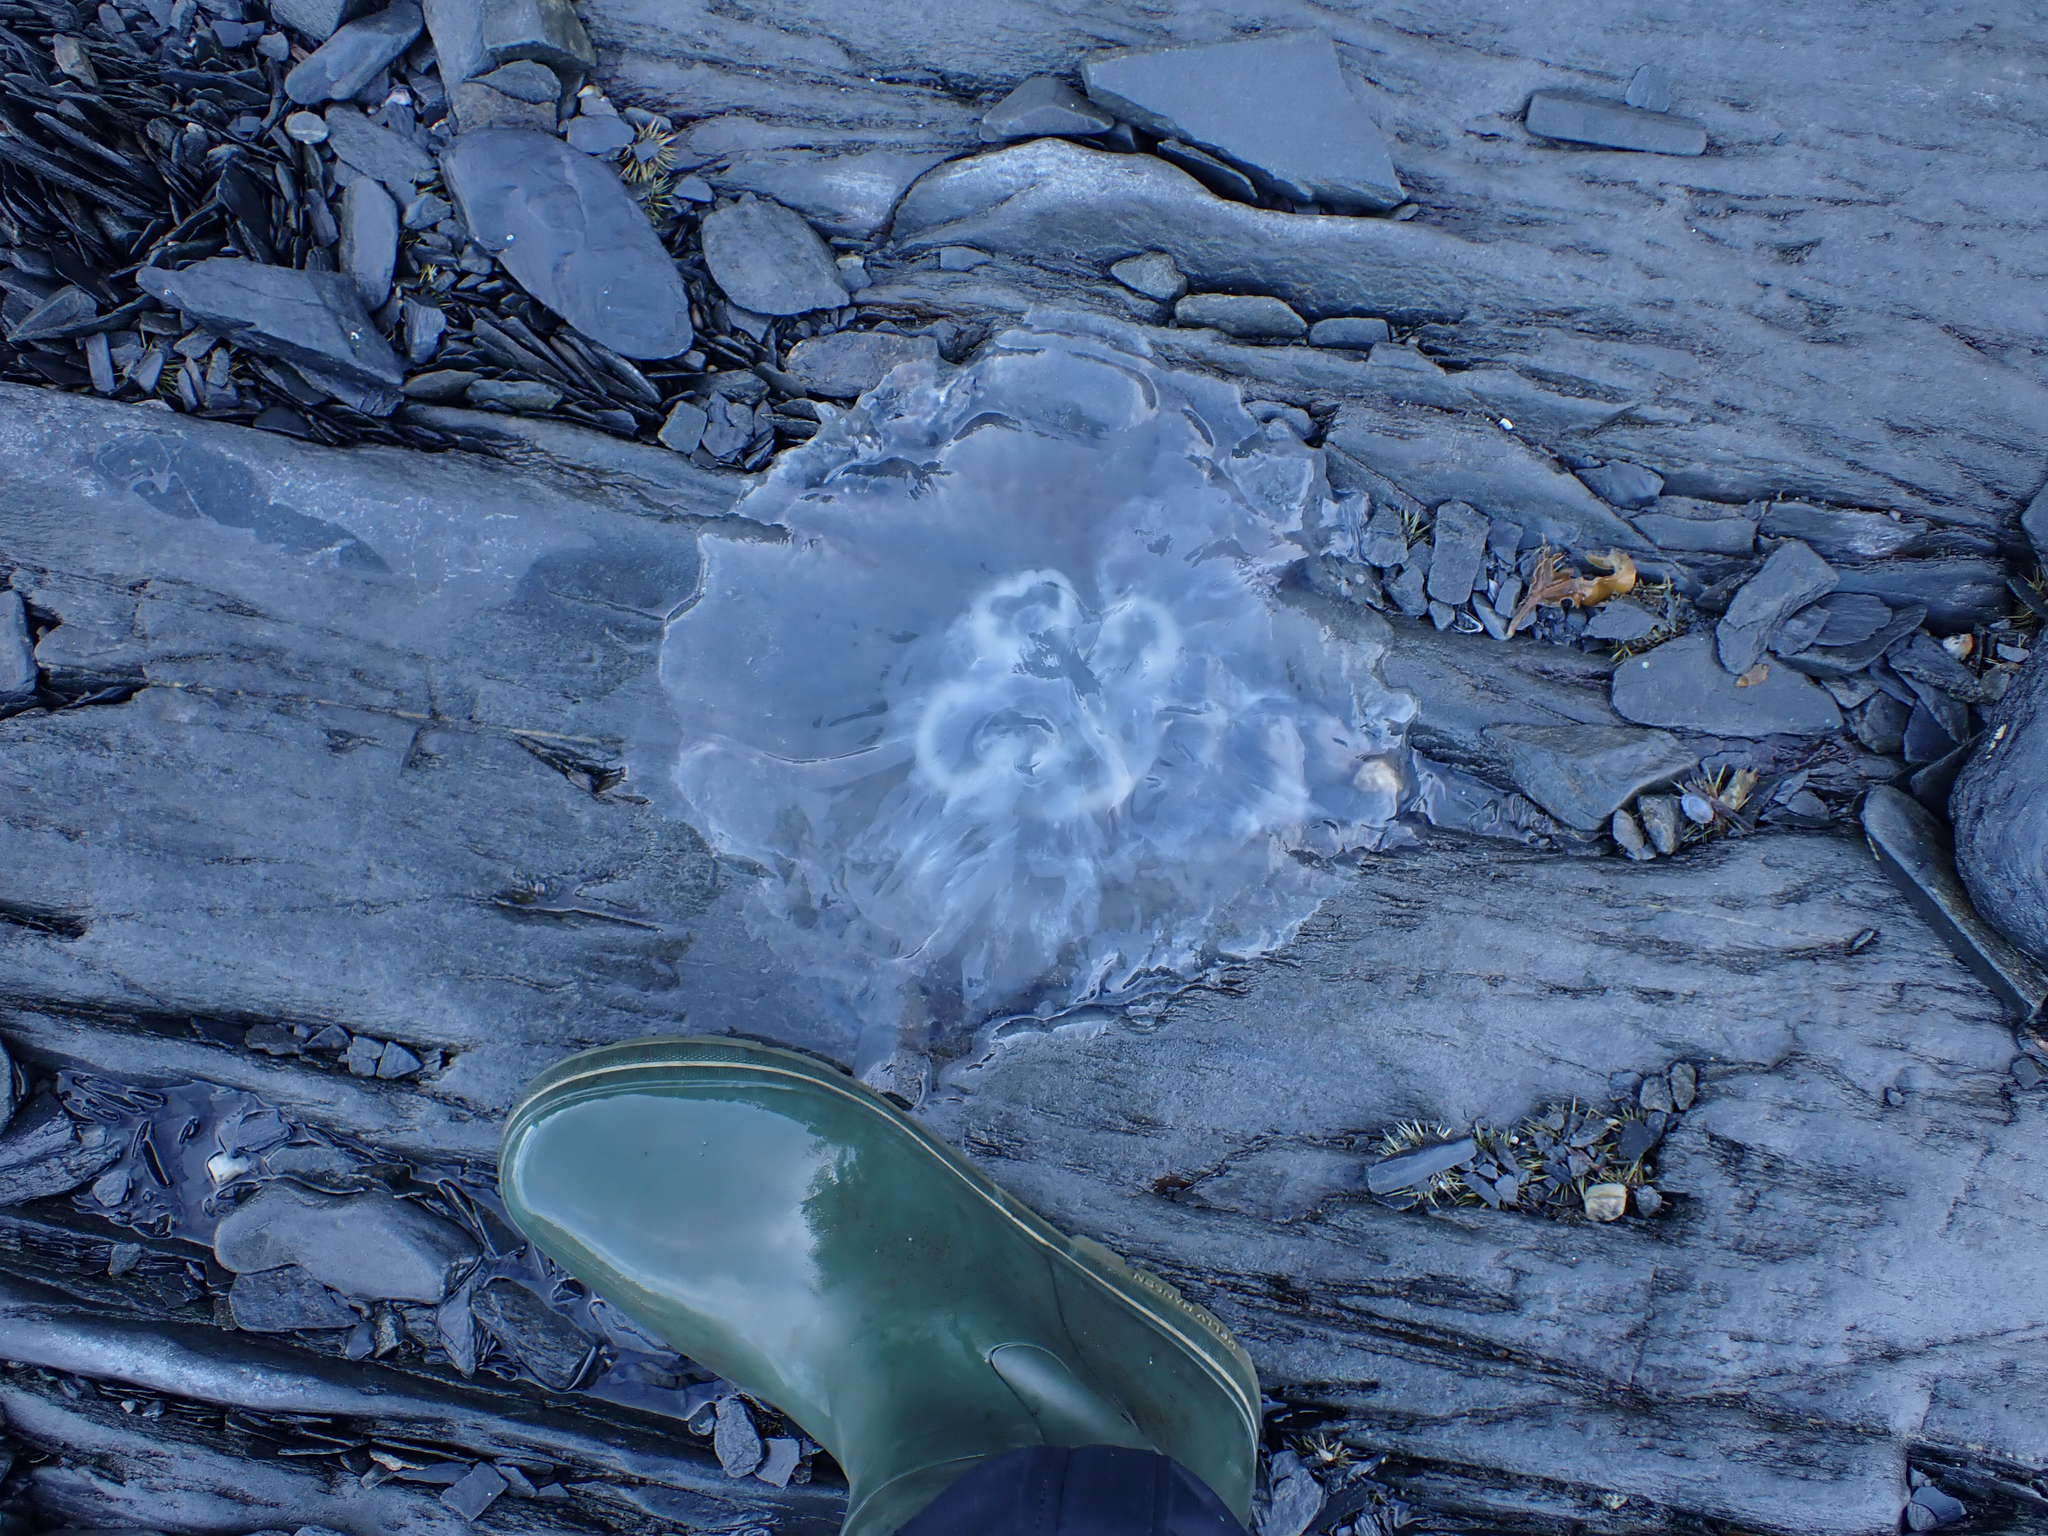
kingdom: Animalia
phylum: Cnidaria
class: Scyphozoa
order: Semaeostomeae
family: Ulmaridae
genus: Aurelia
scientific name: Aurelia labiata
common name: Pacific moon jelly
